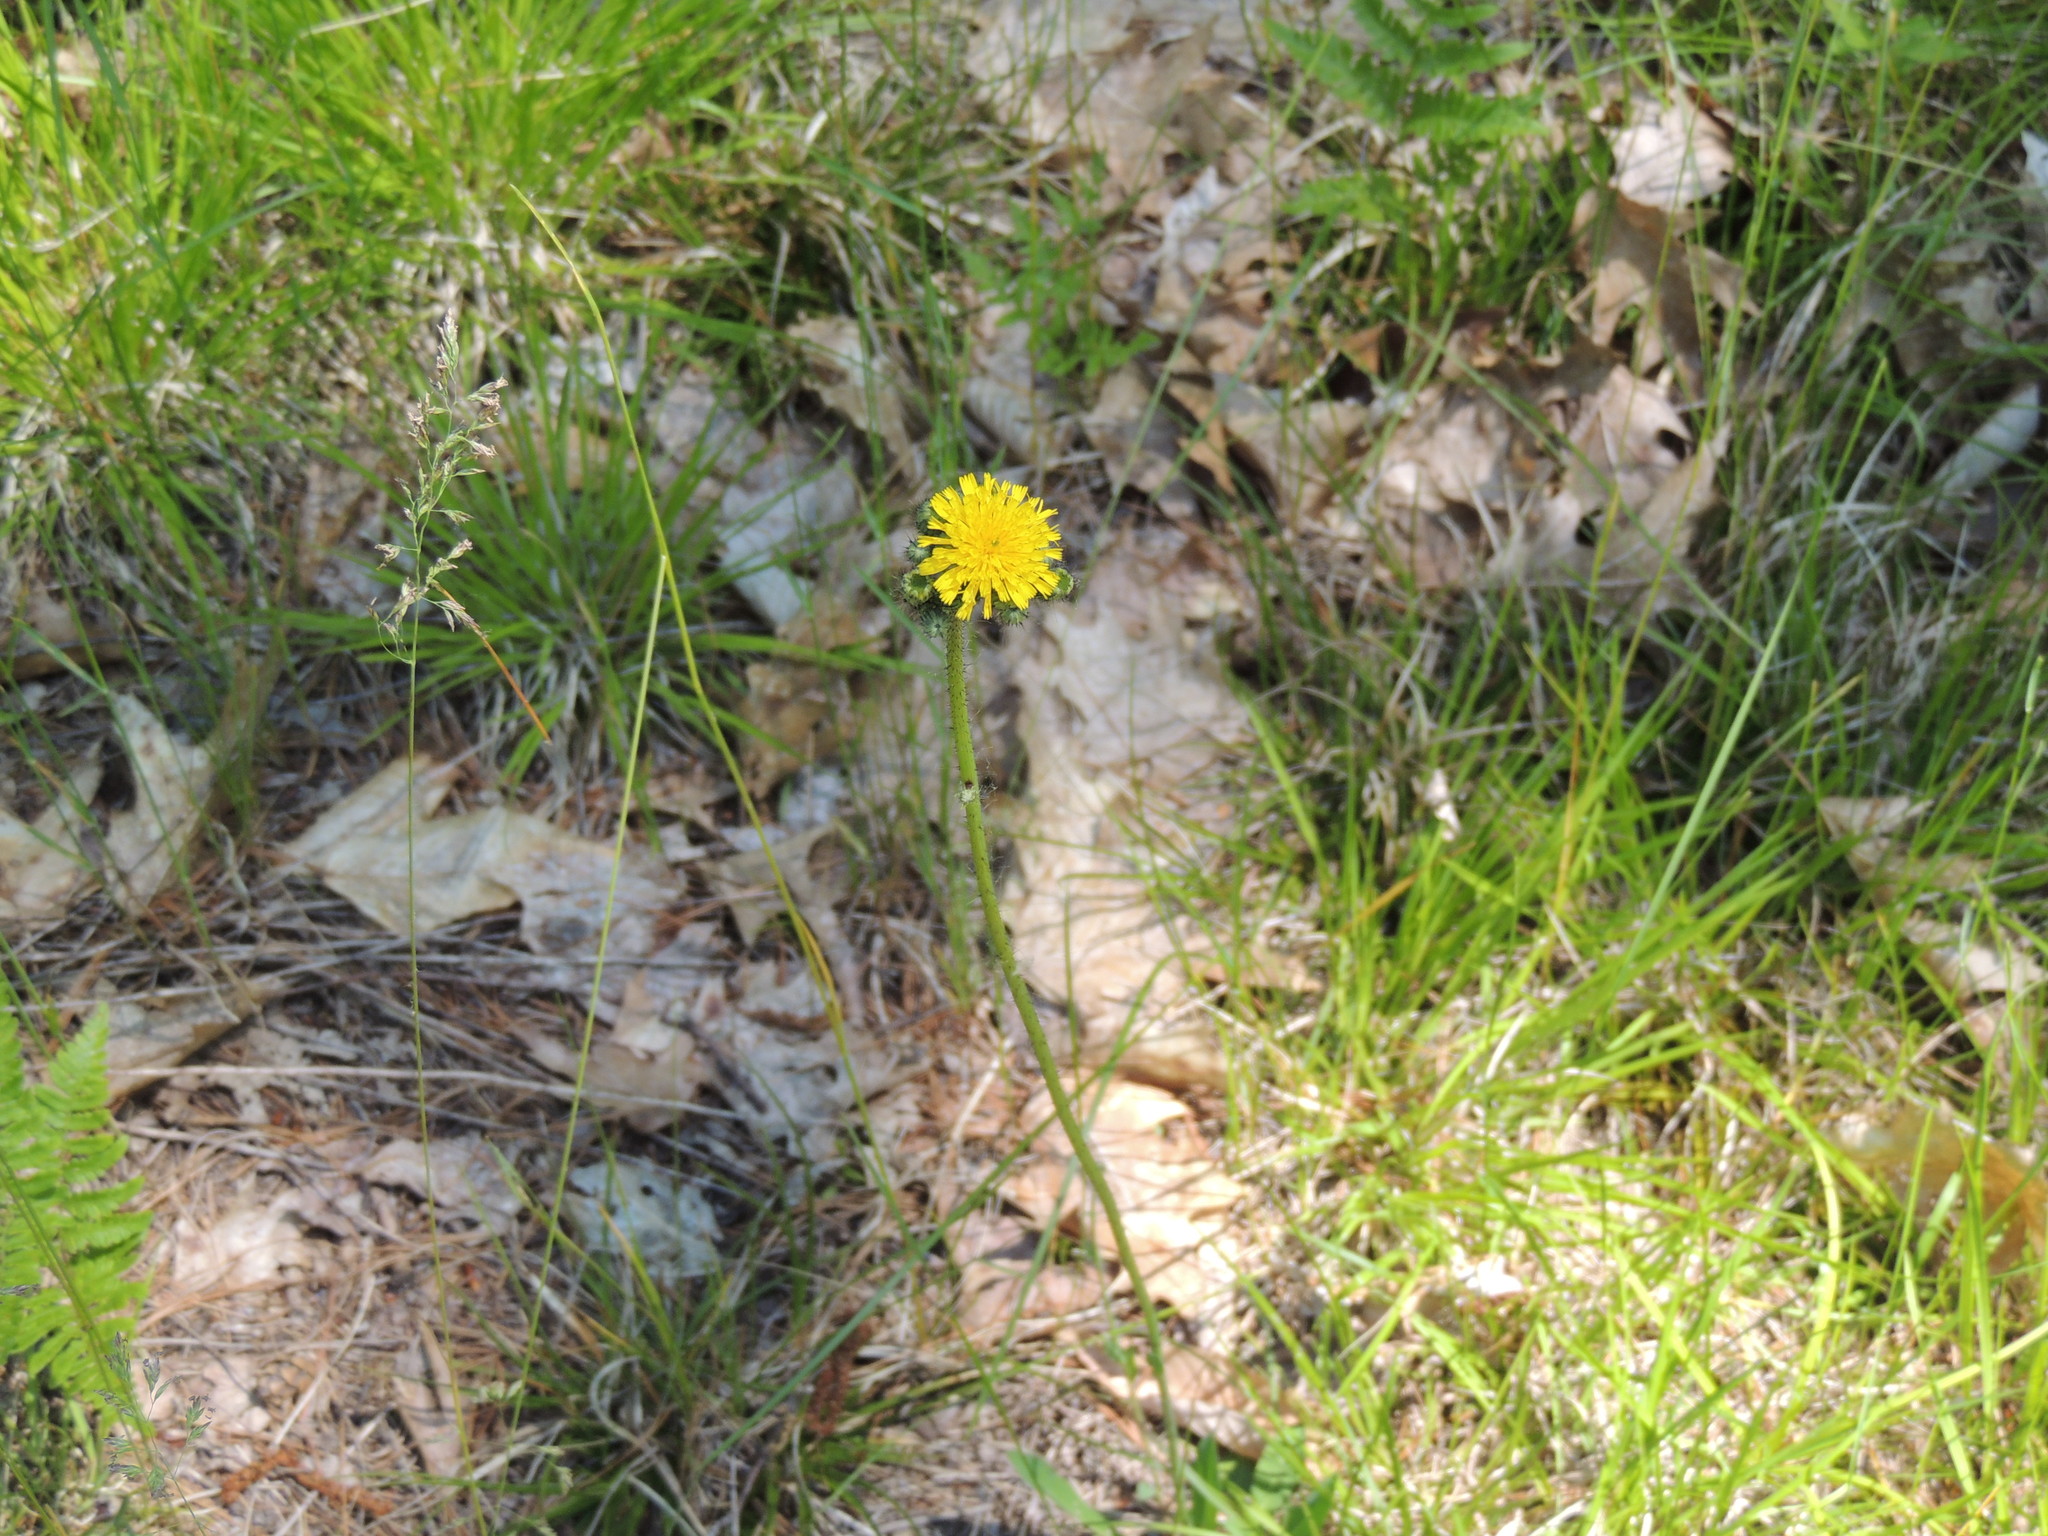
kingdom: Plantae
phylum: Tracheophyta
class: Magnoliopsida
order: Asterales
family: Asteraceae
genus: Pilosella
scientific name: Pilosella caespitosa
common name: Yellow fox-and-cubs
